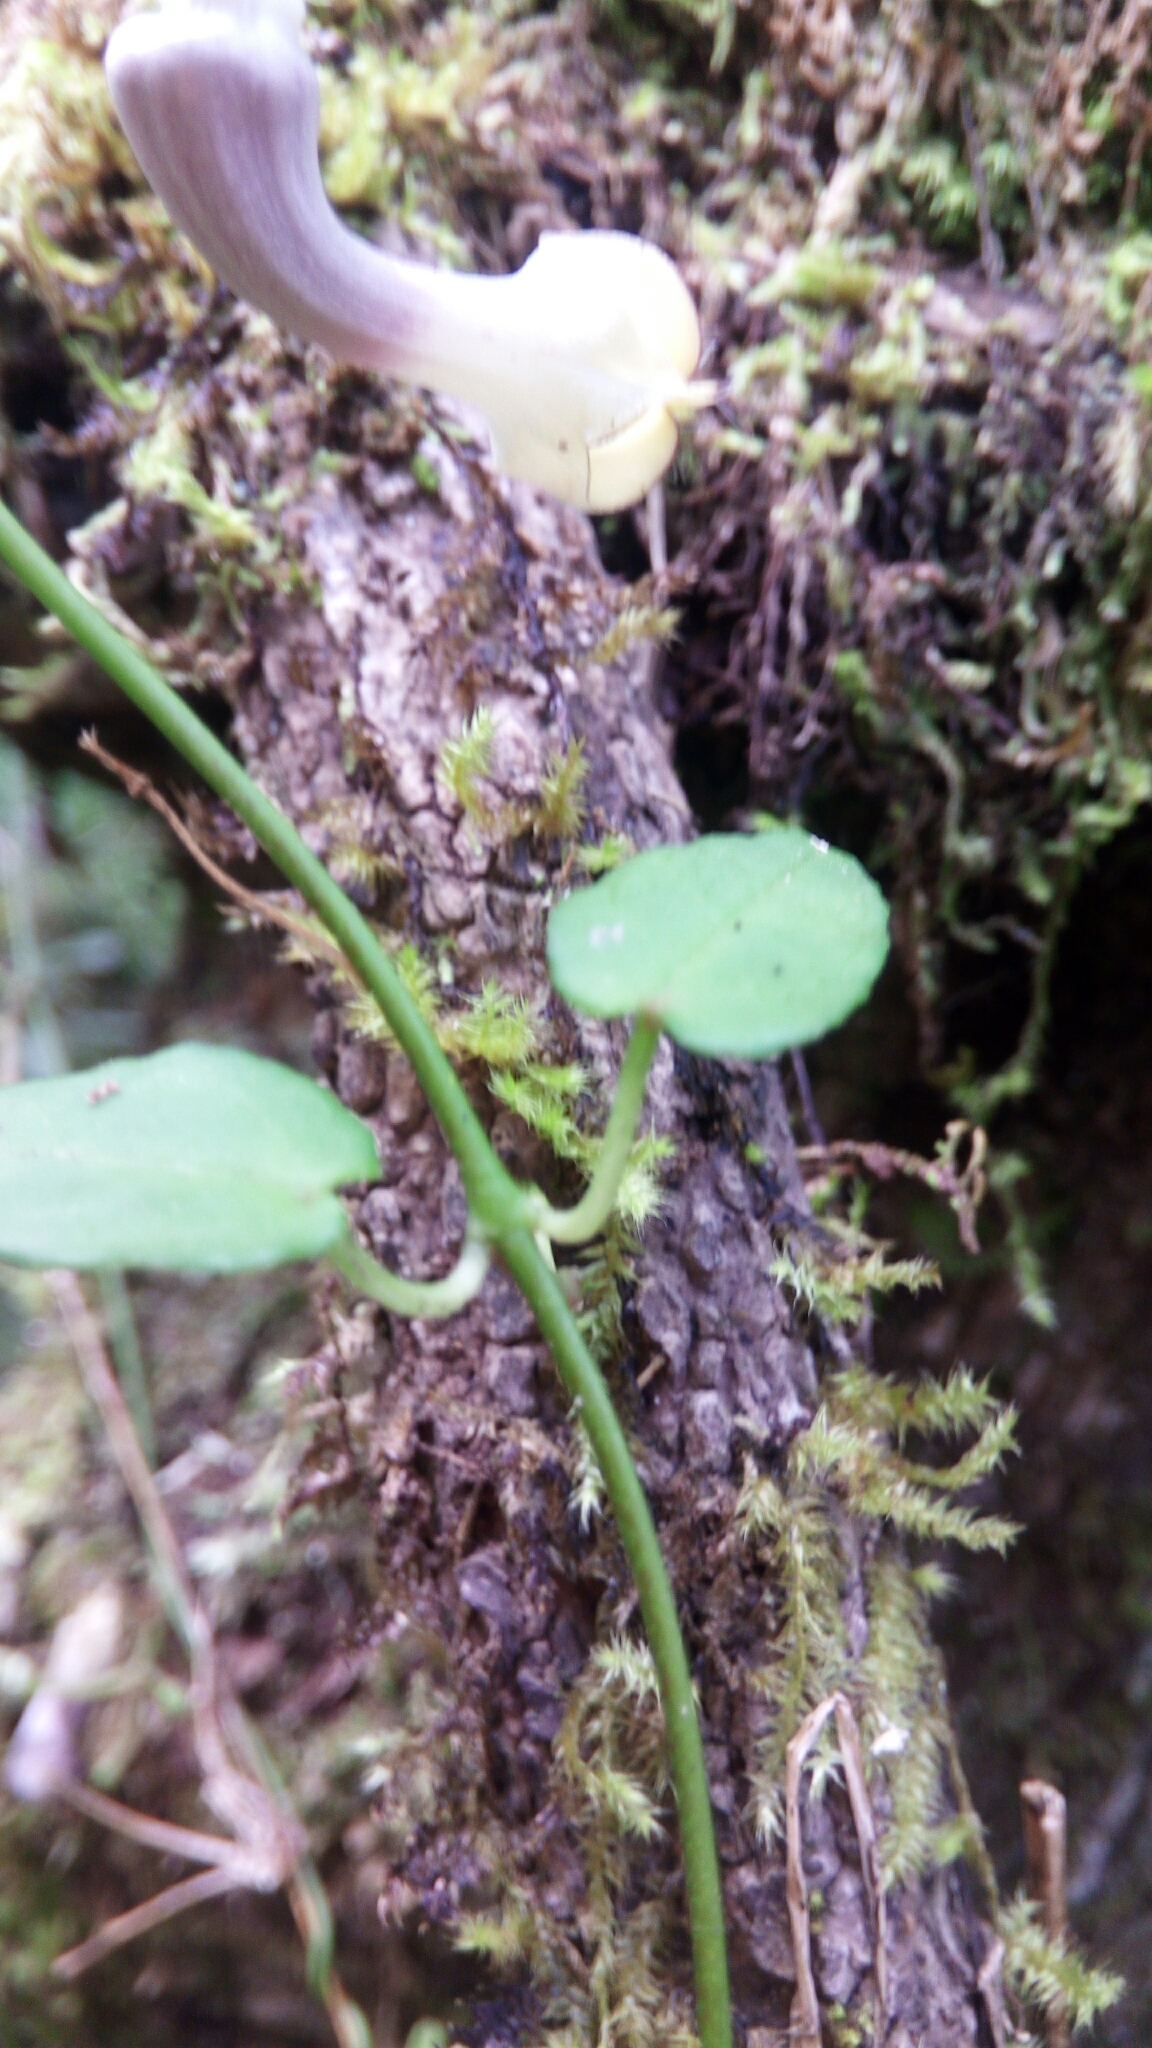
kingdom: Plantae
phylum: Tracheophyta
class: Magnoliopsida
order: Gentianales
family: Apocynaceae
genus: Ceropegia
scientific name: Ceropegia racemosa
